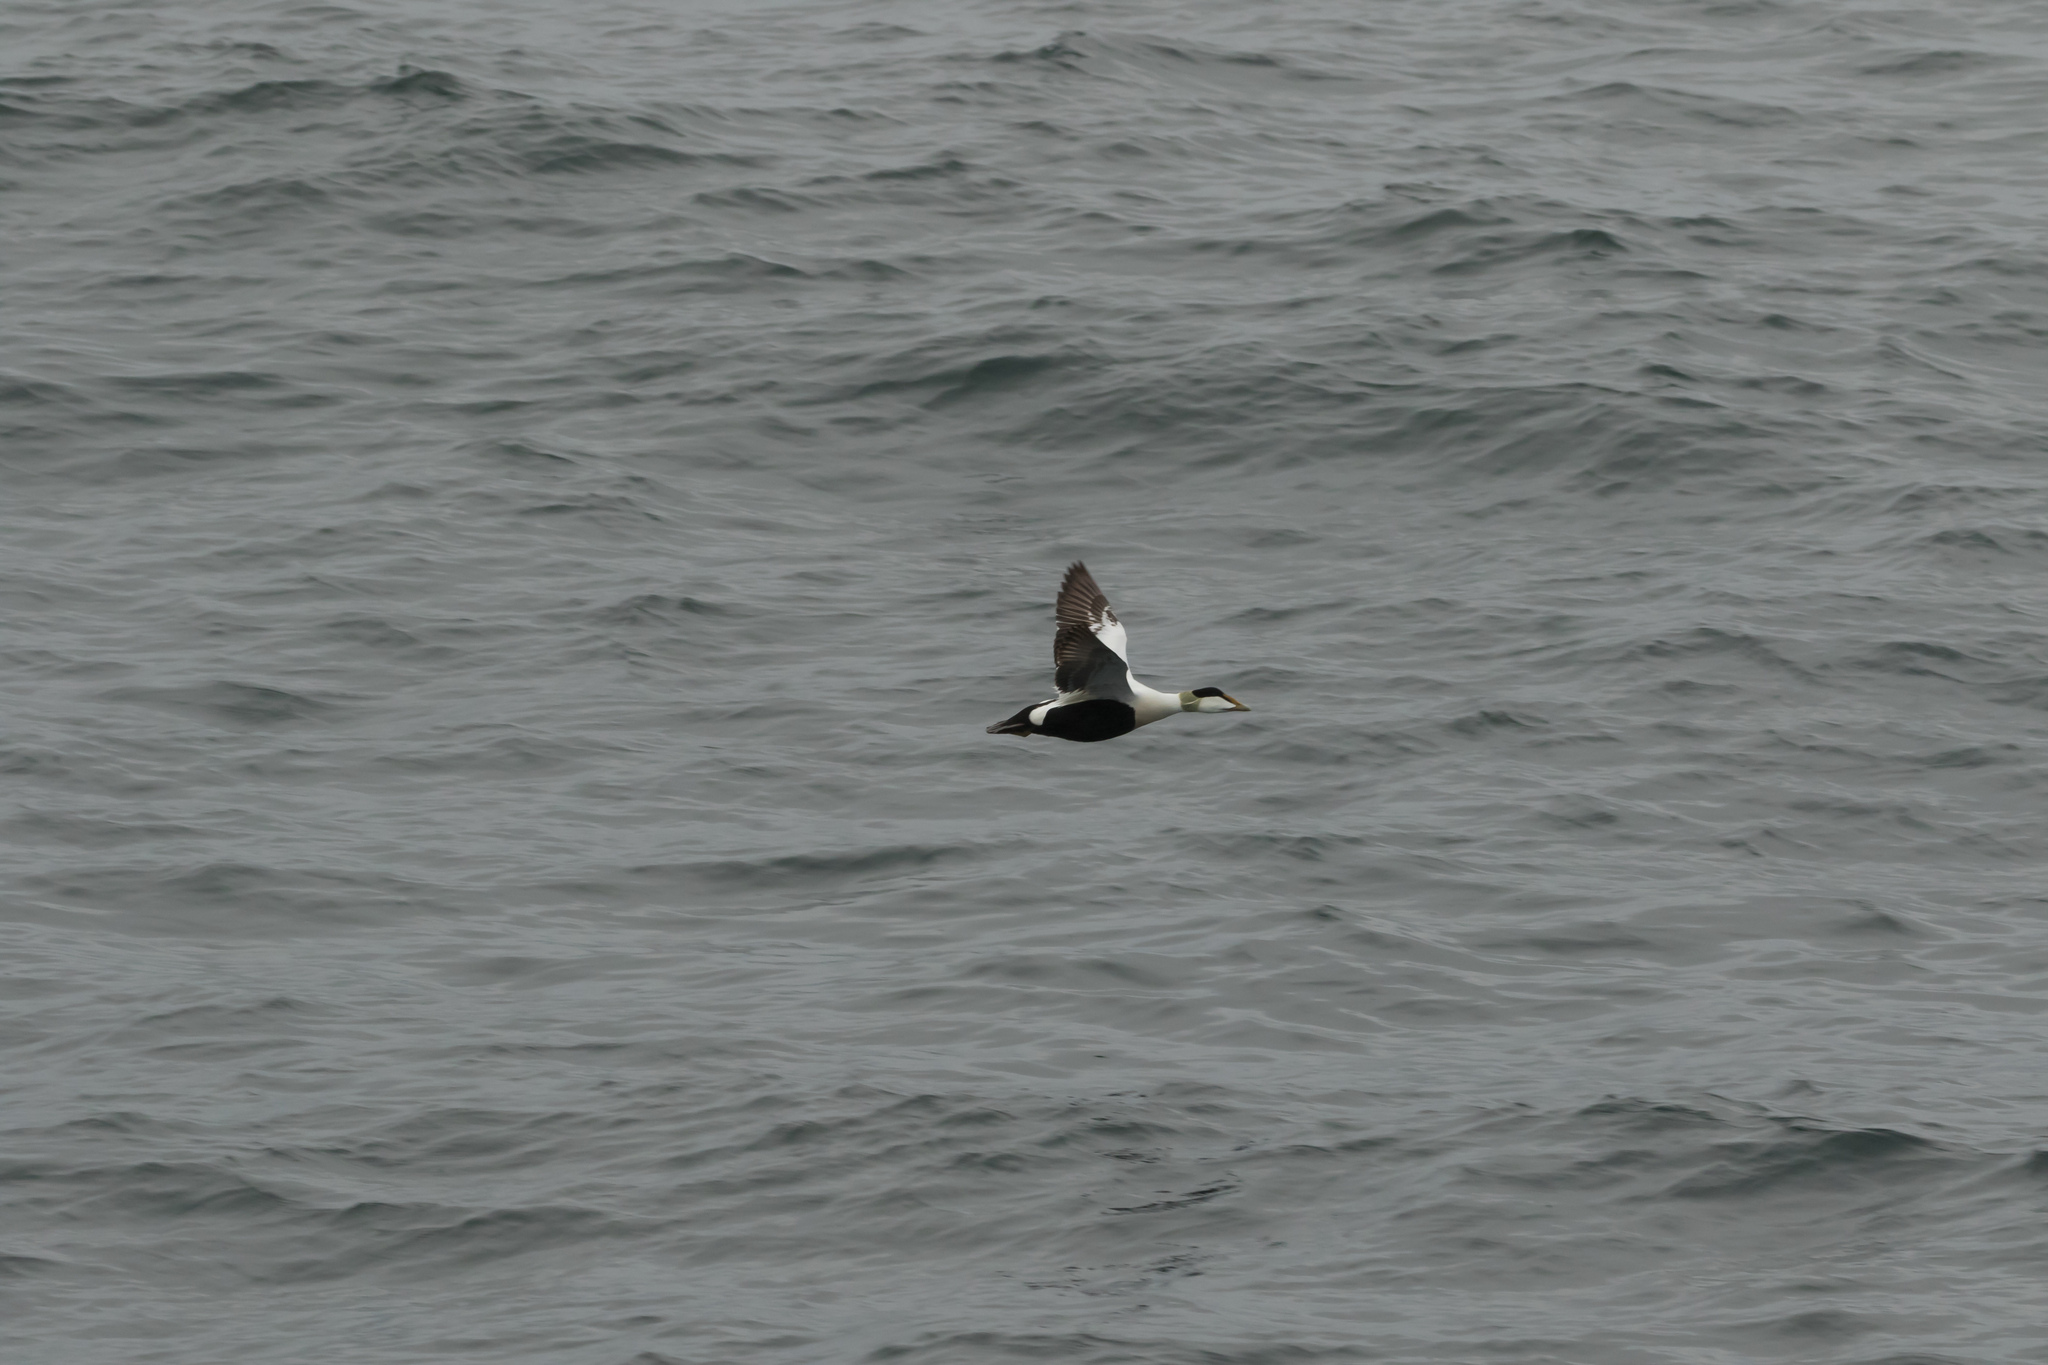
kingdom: Animalia
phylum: Chordata
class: Aves
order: Anseriformes
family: Anatidae
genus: Somateria
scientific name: Somateria mollissima
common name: Common eider
